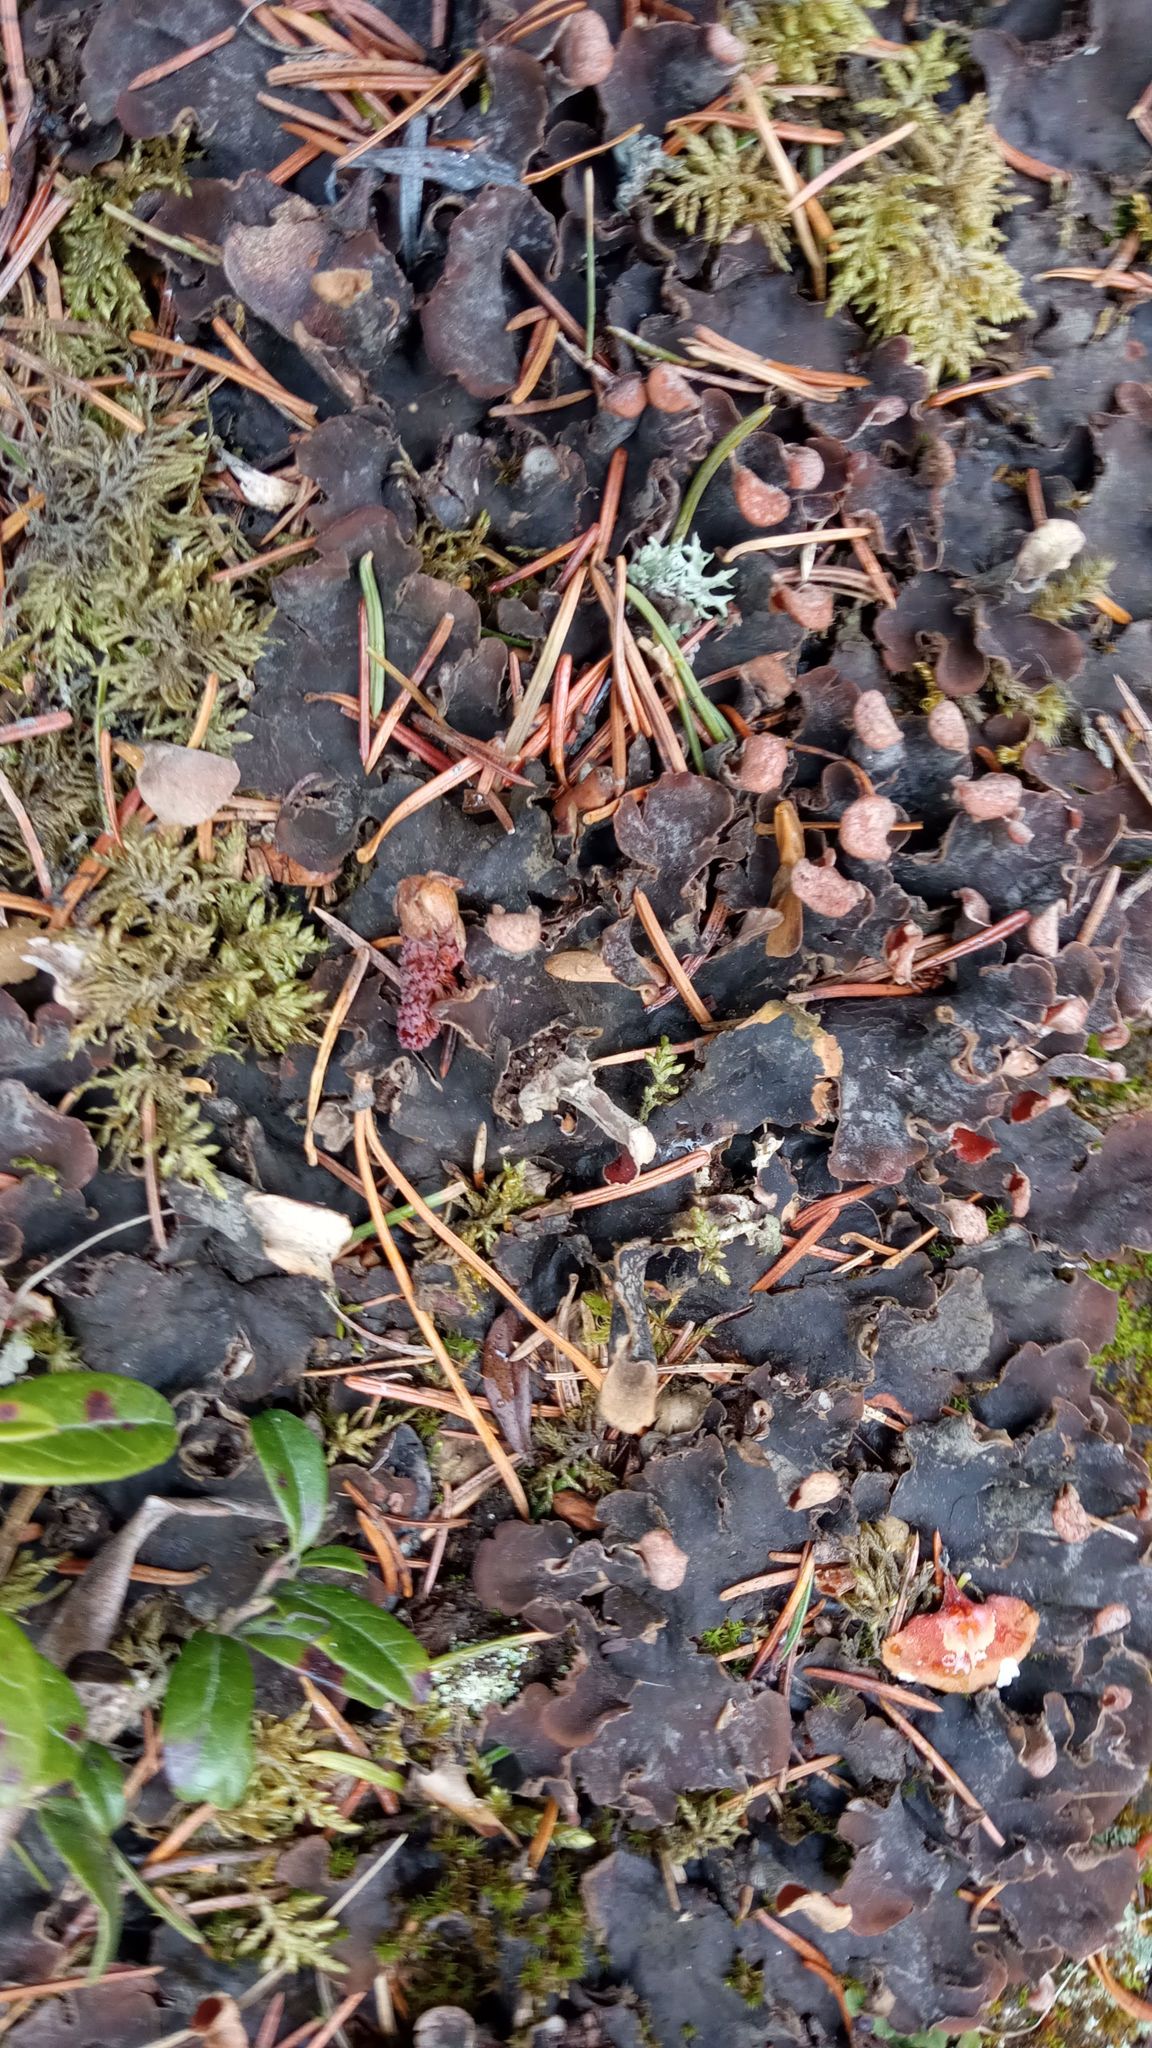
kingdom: Fungi
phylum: Ascomycota
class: Lecanoromycetes
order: Peltigerales
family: Peltigeraceae
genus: Peltigera
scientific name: Peltigera praetextata
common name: Scaly dog-lichen
